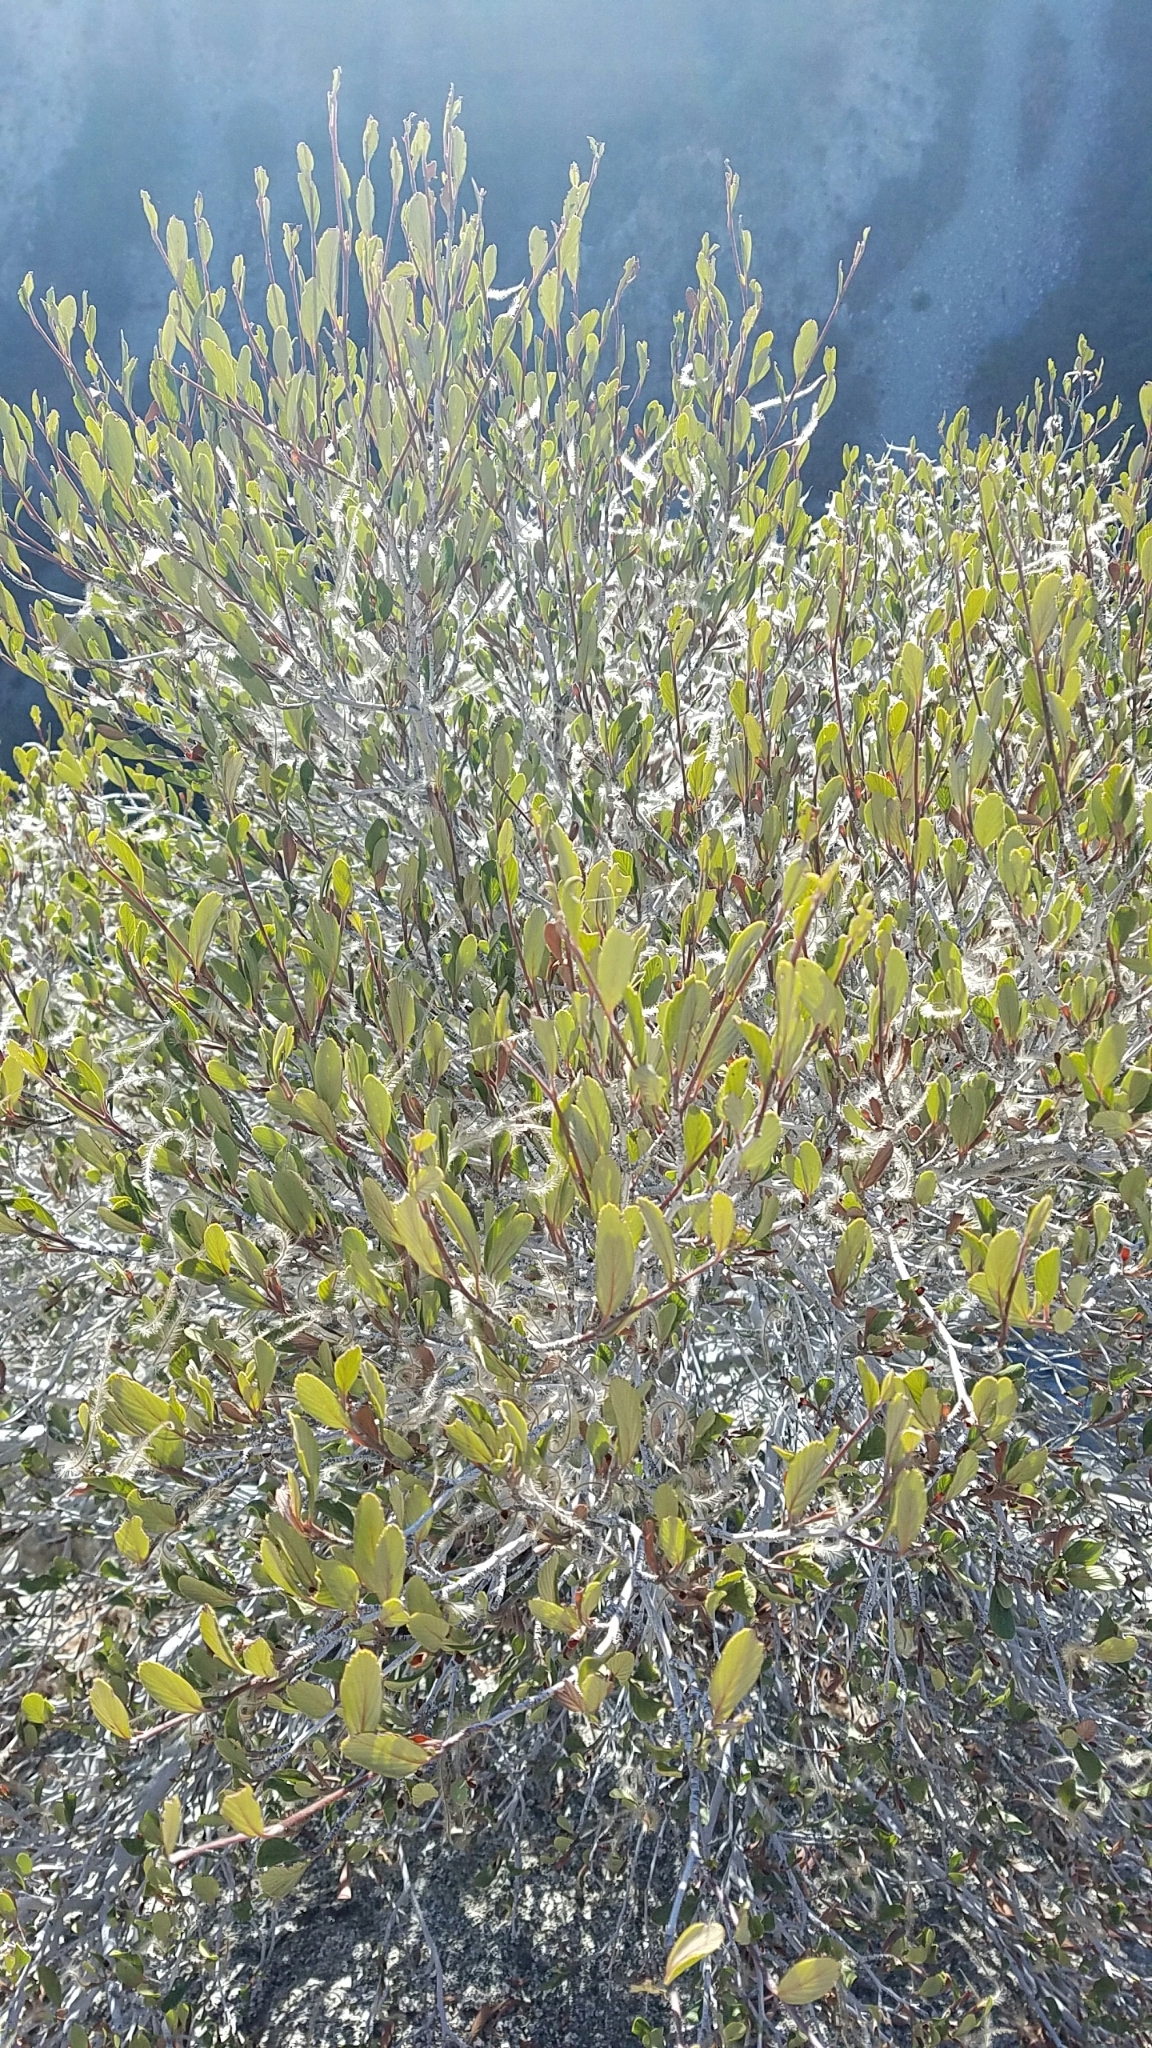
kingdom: Plantae
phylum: Tracheophyta
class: Magnoliopsida
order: Rosales
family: Rosaceae
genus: Cercocarpus
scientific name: Cercocarpus betuloides
